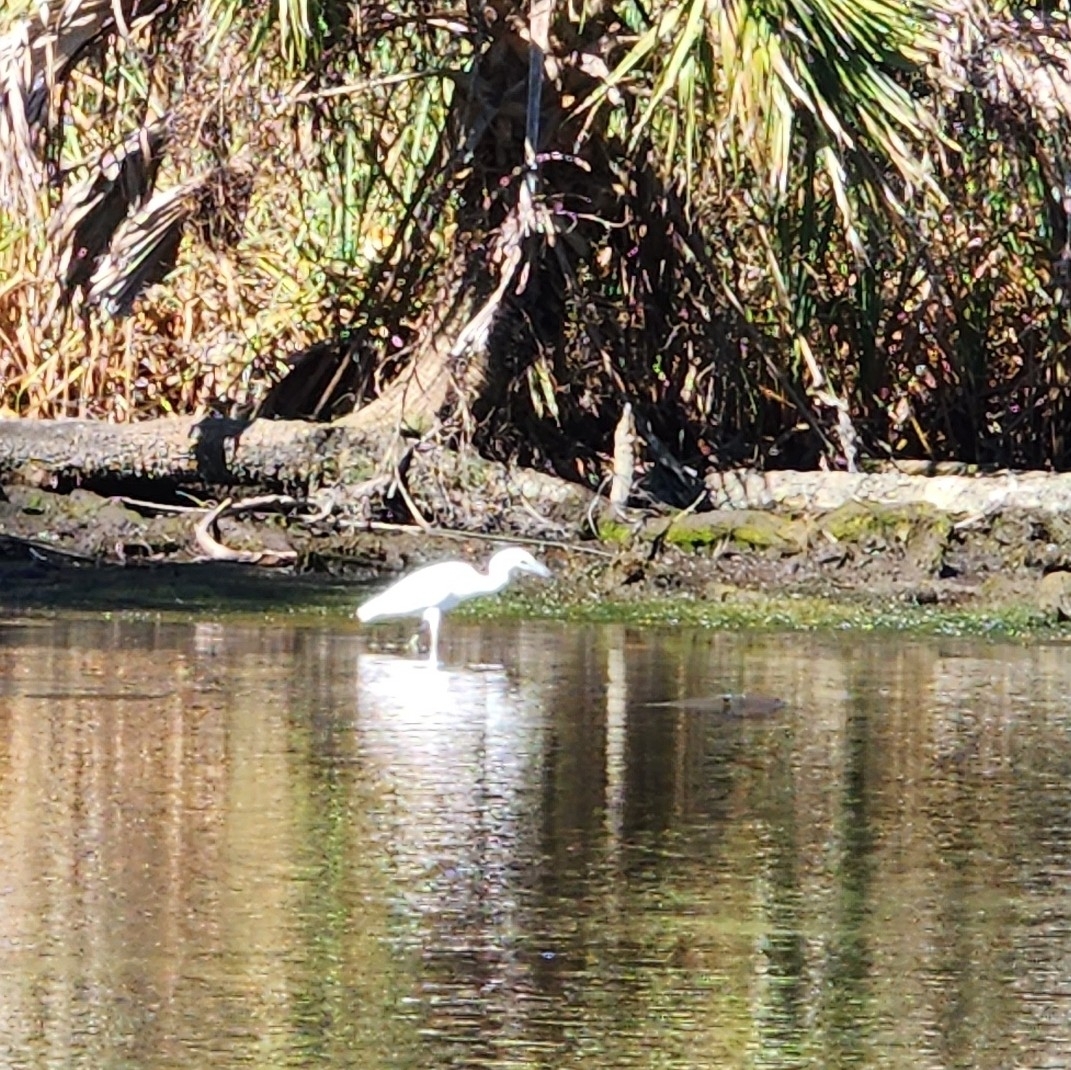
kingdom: Animalia
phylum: Chordata
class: Aves
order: Pelecaniformes
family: Ardeidae
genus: Egretta
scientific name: Egretta caerulea
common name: Little blue heron
